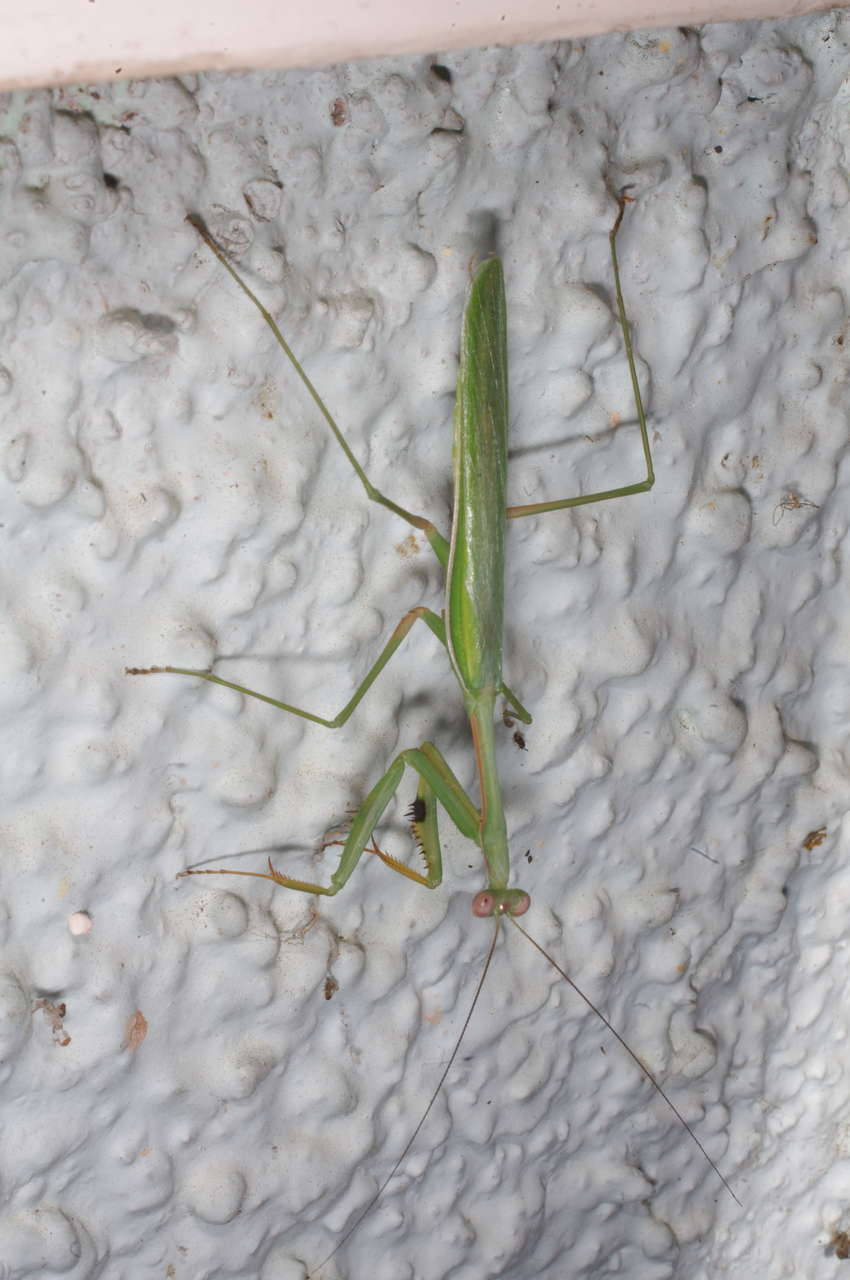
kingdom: Animalia
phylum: Arthropoda
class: Insecta
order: Mantodea
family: Mantidae
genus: Pseudomantis
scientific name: Pseudomantis albofimbriata
